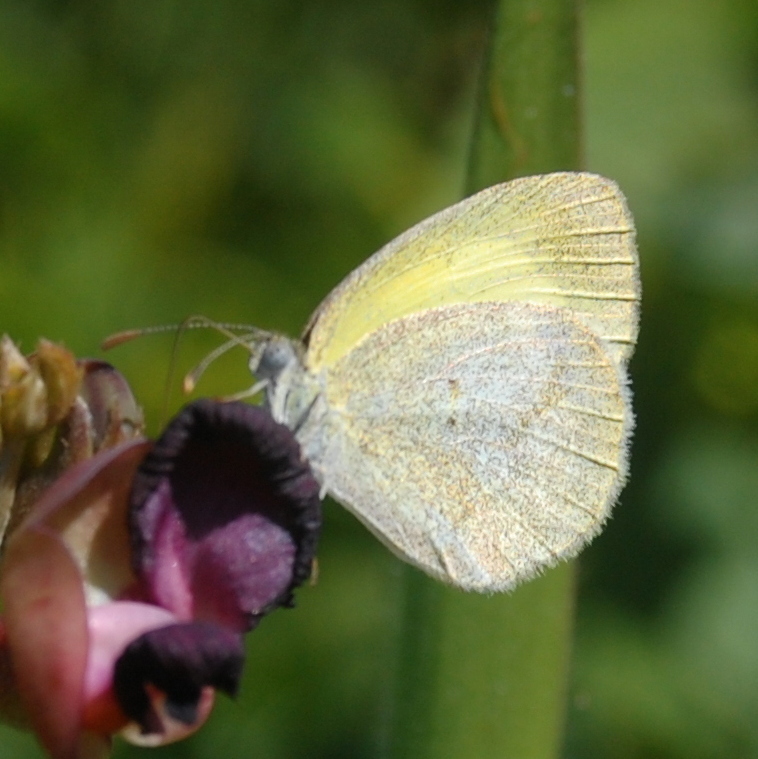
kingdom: Animalia
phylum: Arthropoda
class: Insecta
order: Lepidoptera
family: Pieridae
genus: Eurema
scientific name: Eurema elathea
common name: Banded yellow
